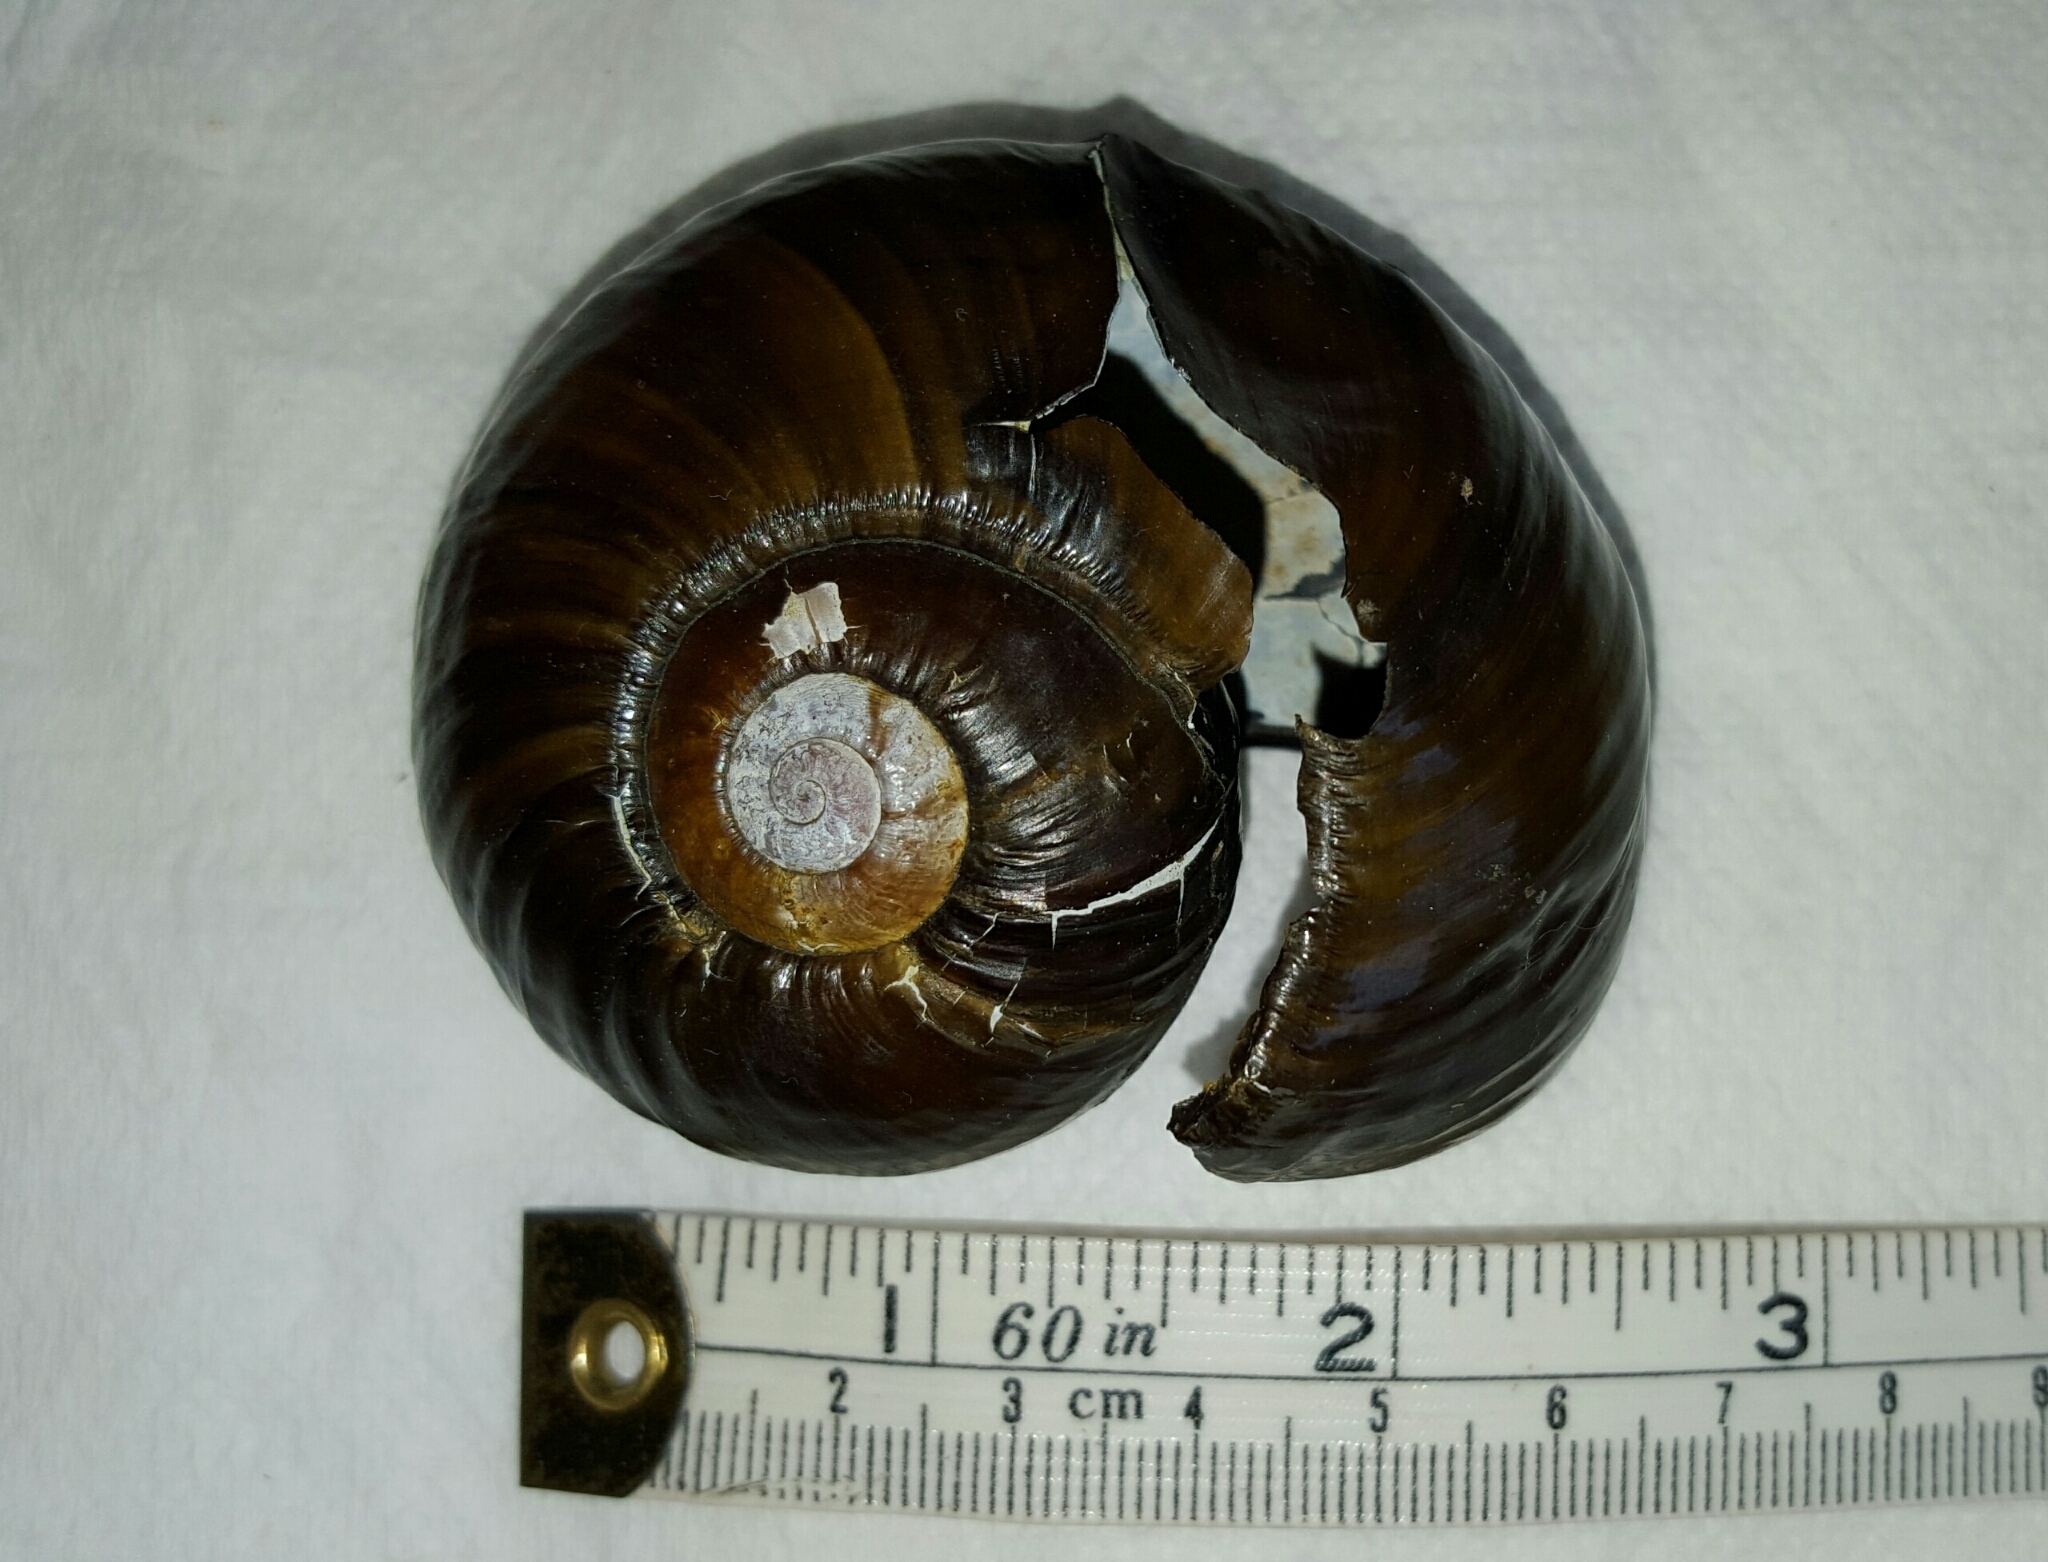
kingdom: Animalia
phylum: Mollusca
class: Gastropoda
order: Stylommatophora
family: Rhytididae
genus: Paryphanta
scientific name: Paryphanta busbyi
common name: Kauri snail
